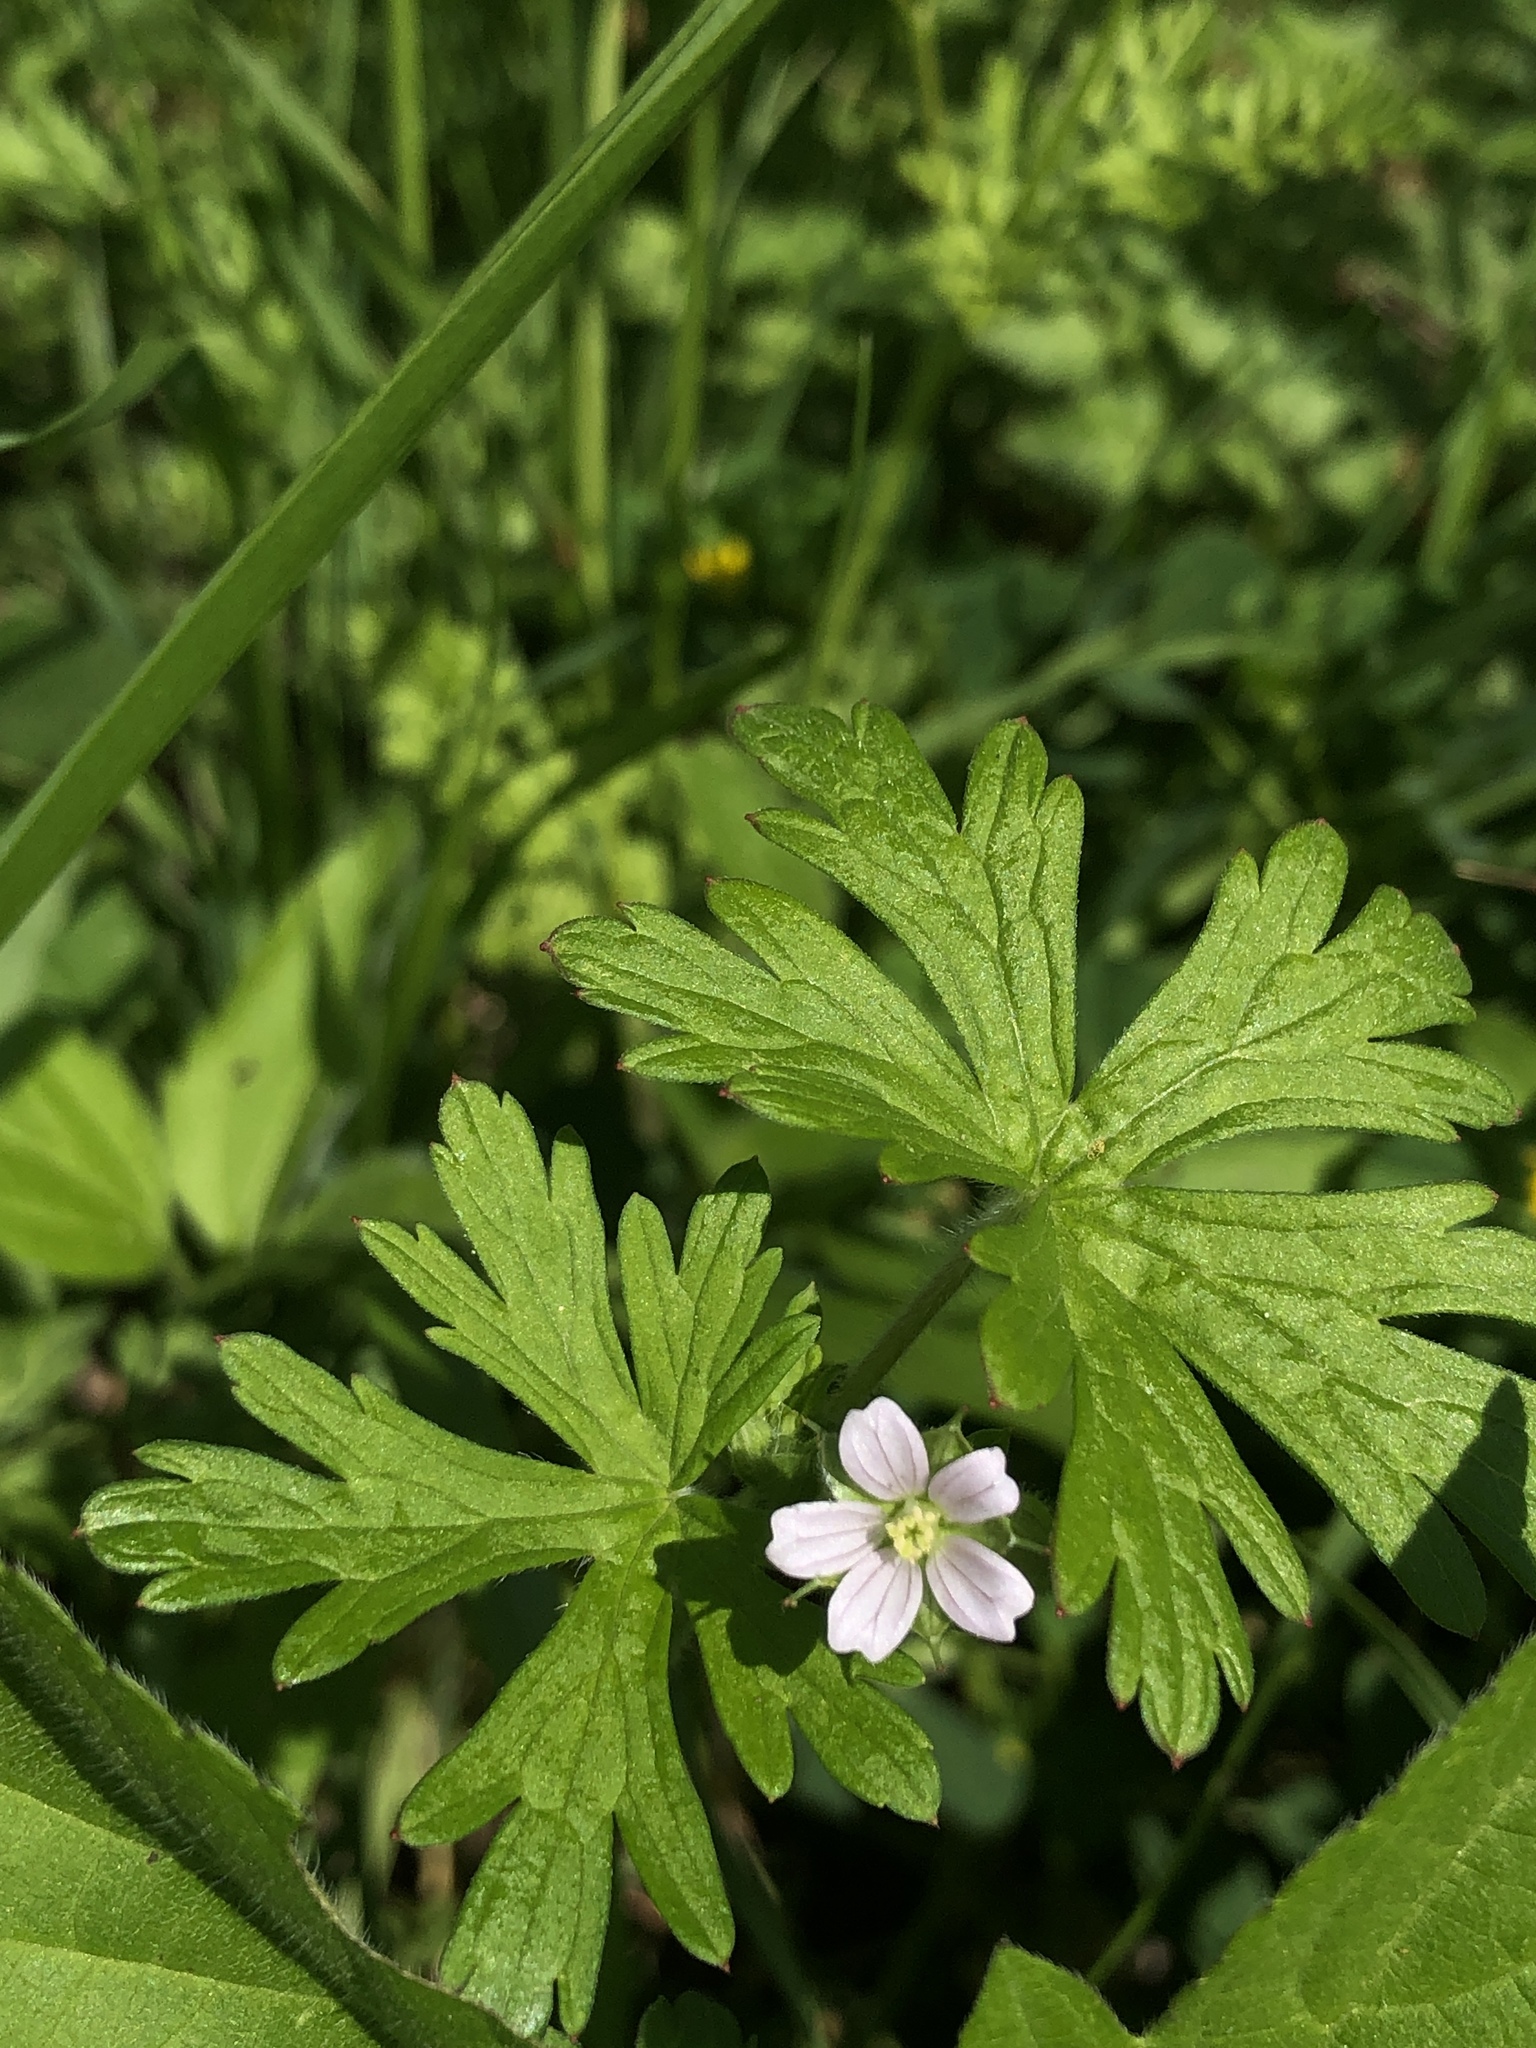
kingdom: Plantae
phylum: Tracheophyta
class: Magnoliopsida
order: Geraniales
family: Geraniaceae
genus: Geranium
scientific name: Geranium carolinianum
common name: Carolina crane's-bill
